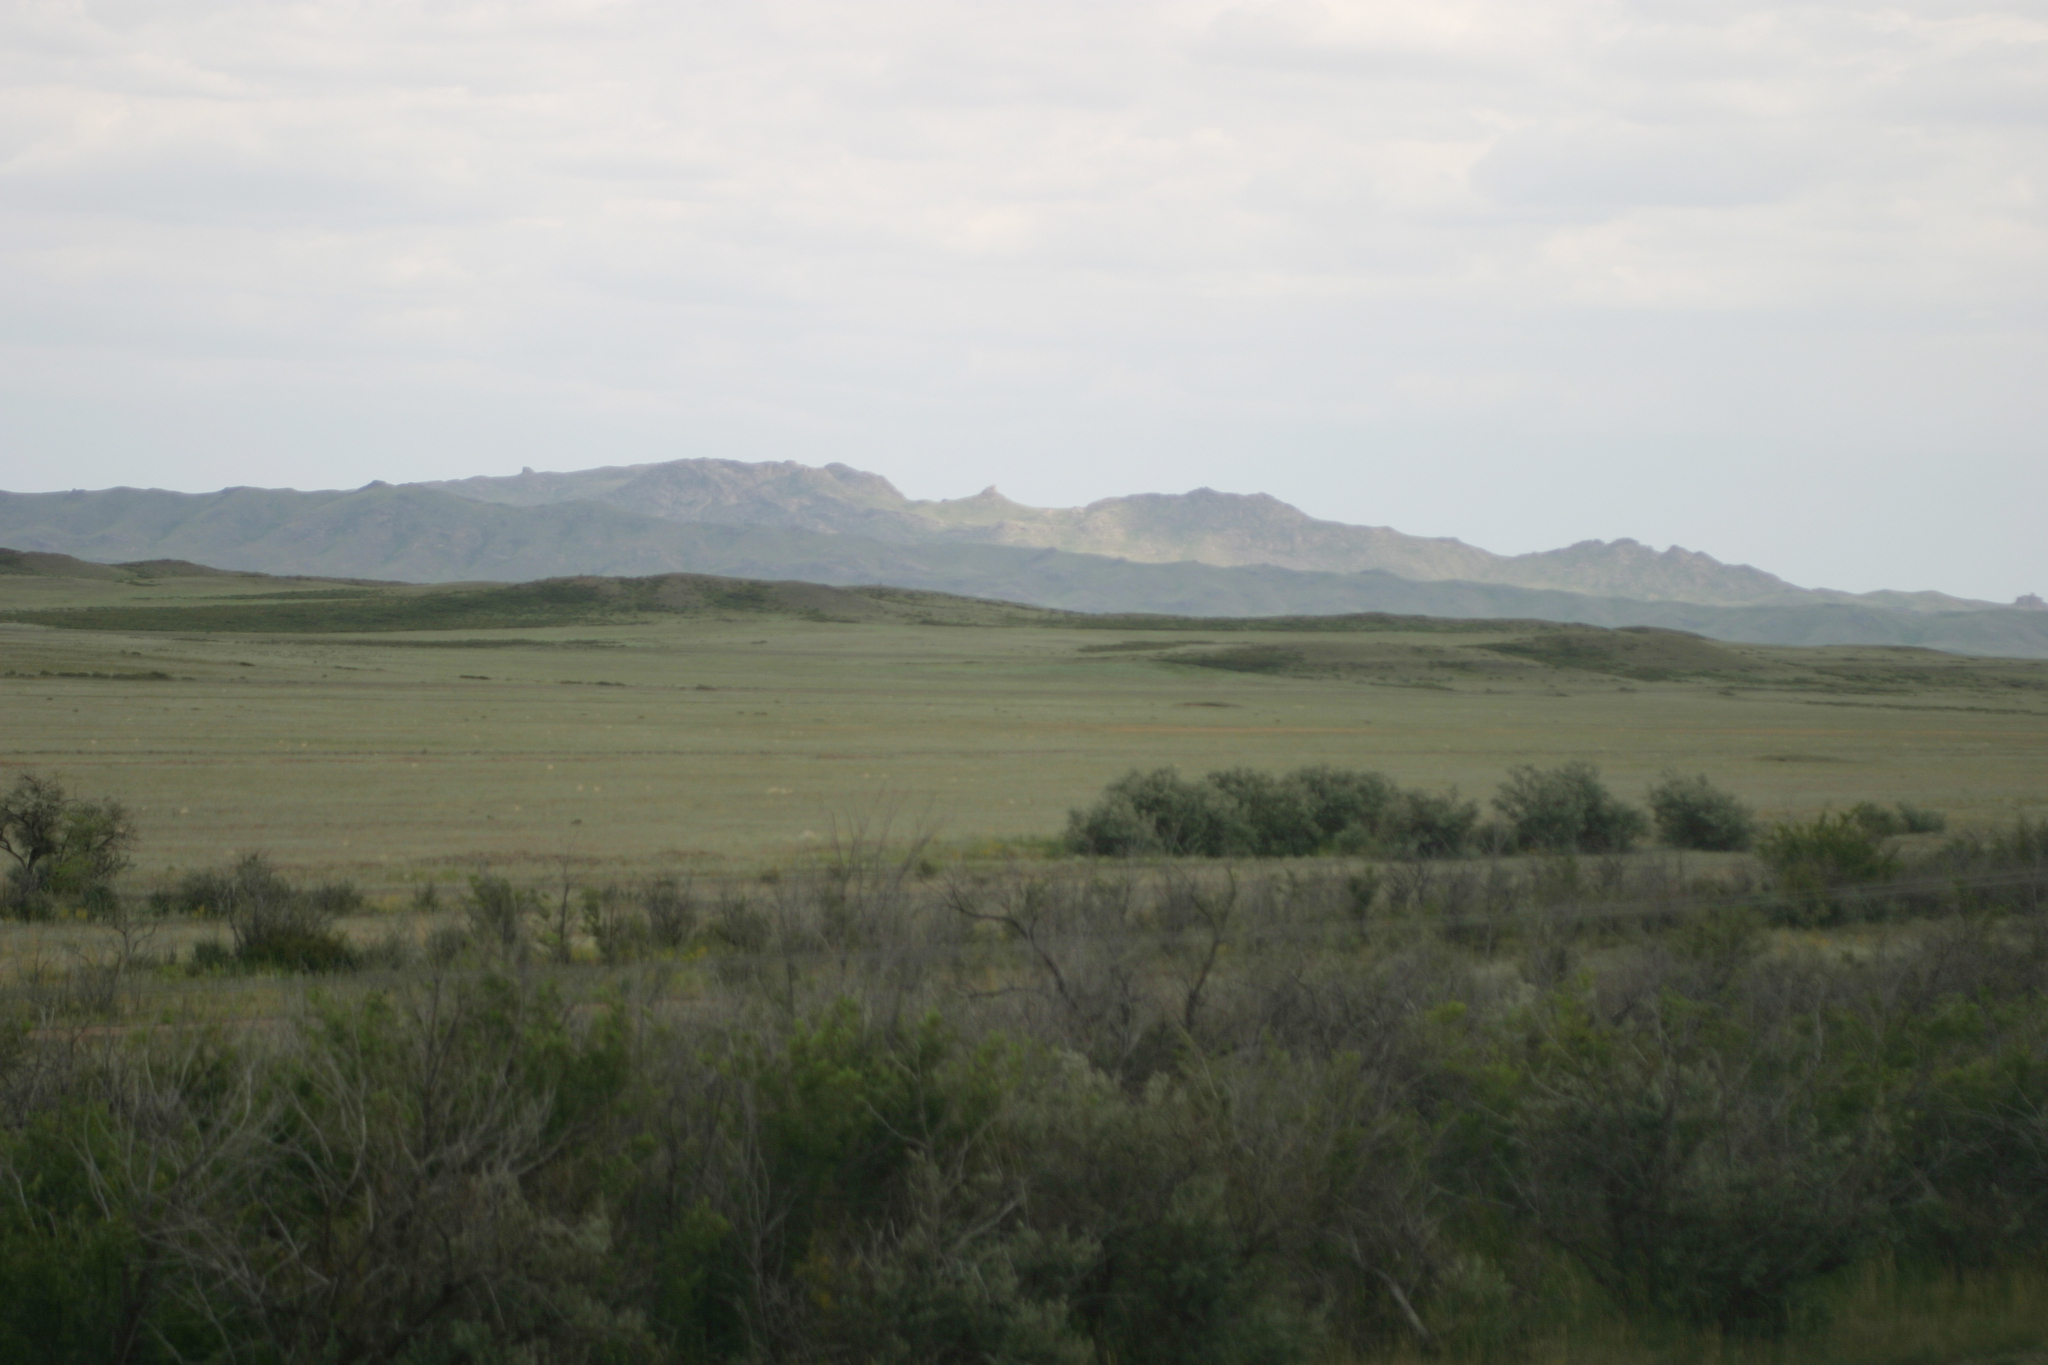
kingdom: Plantae
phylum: Tracheophyta
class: Magnoliopsida
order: Rosales
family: Ulmaceae
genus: Ulmus
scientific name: Ulmus pumila
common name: Siberian elm
